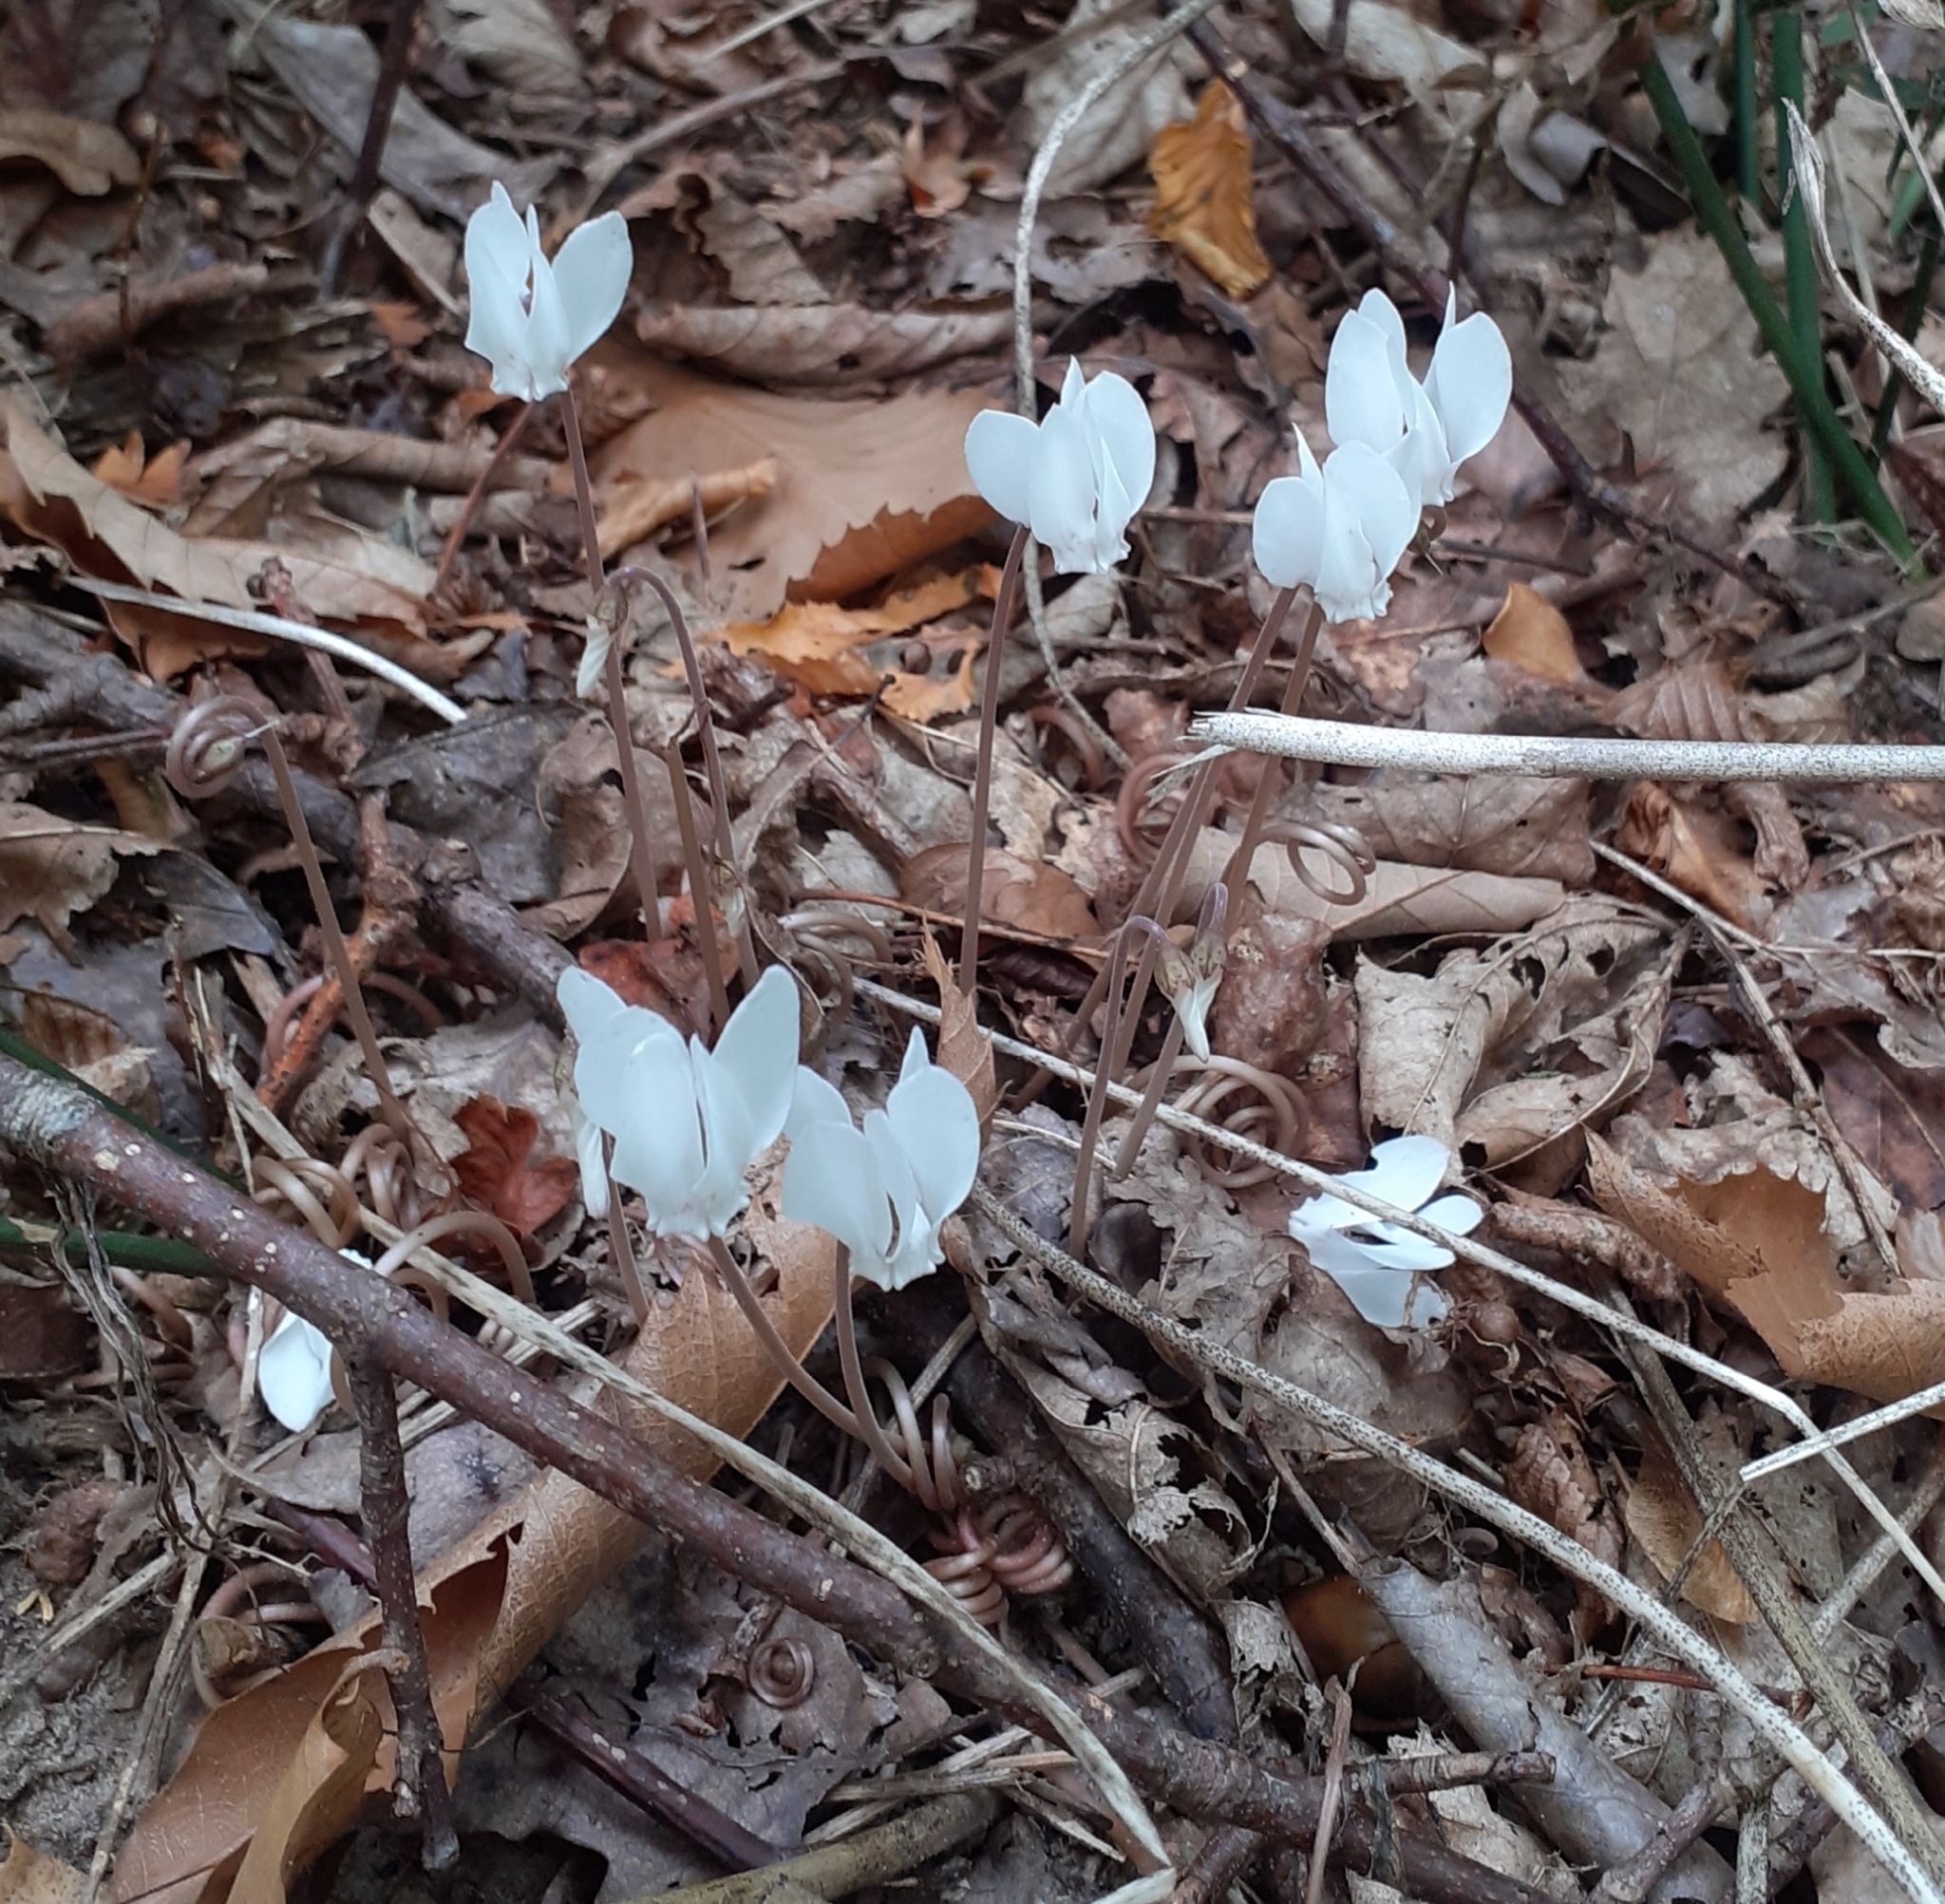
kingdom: Plantae
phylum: Tracheophyta
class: Magnoliopsida
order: Ericales
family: Primulaceae
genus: Cyclamen
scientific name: Cyclamen hederifolium
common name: Sowbread
